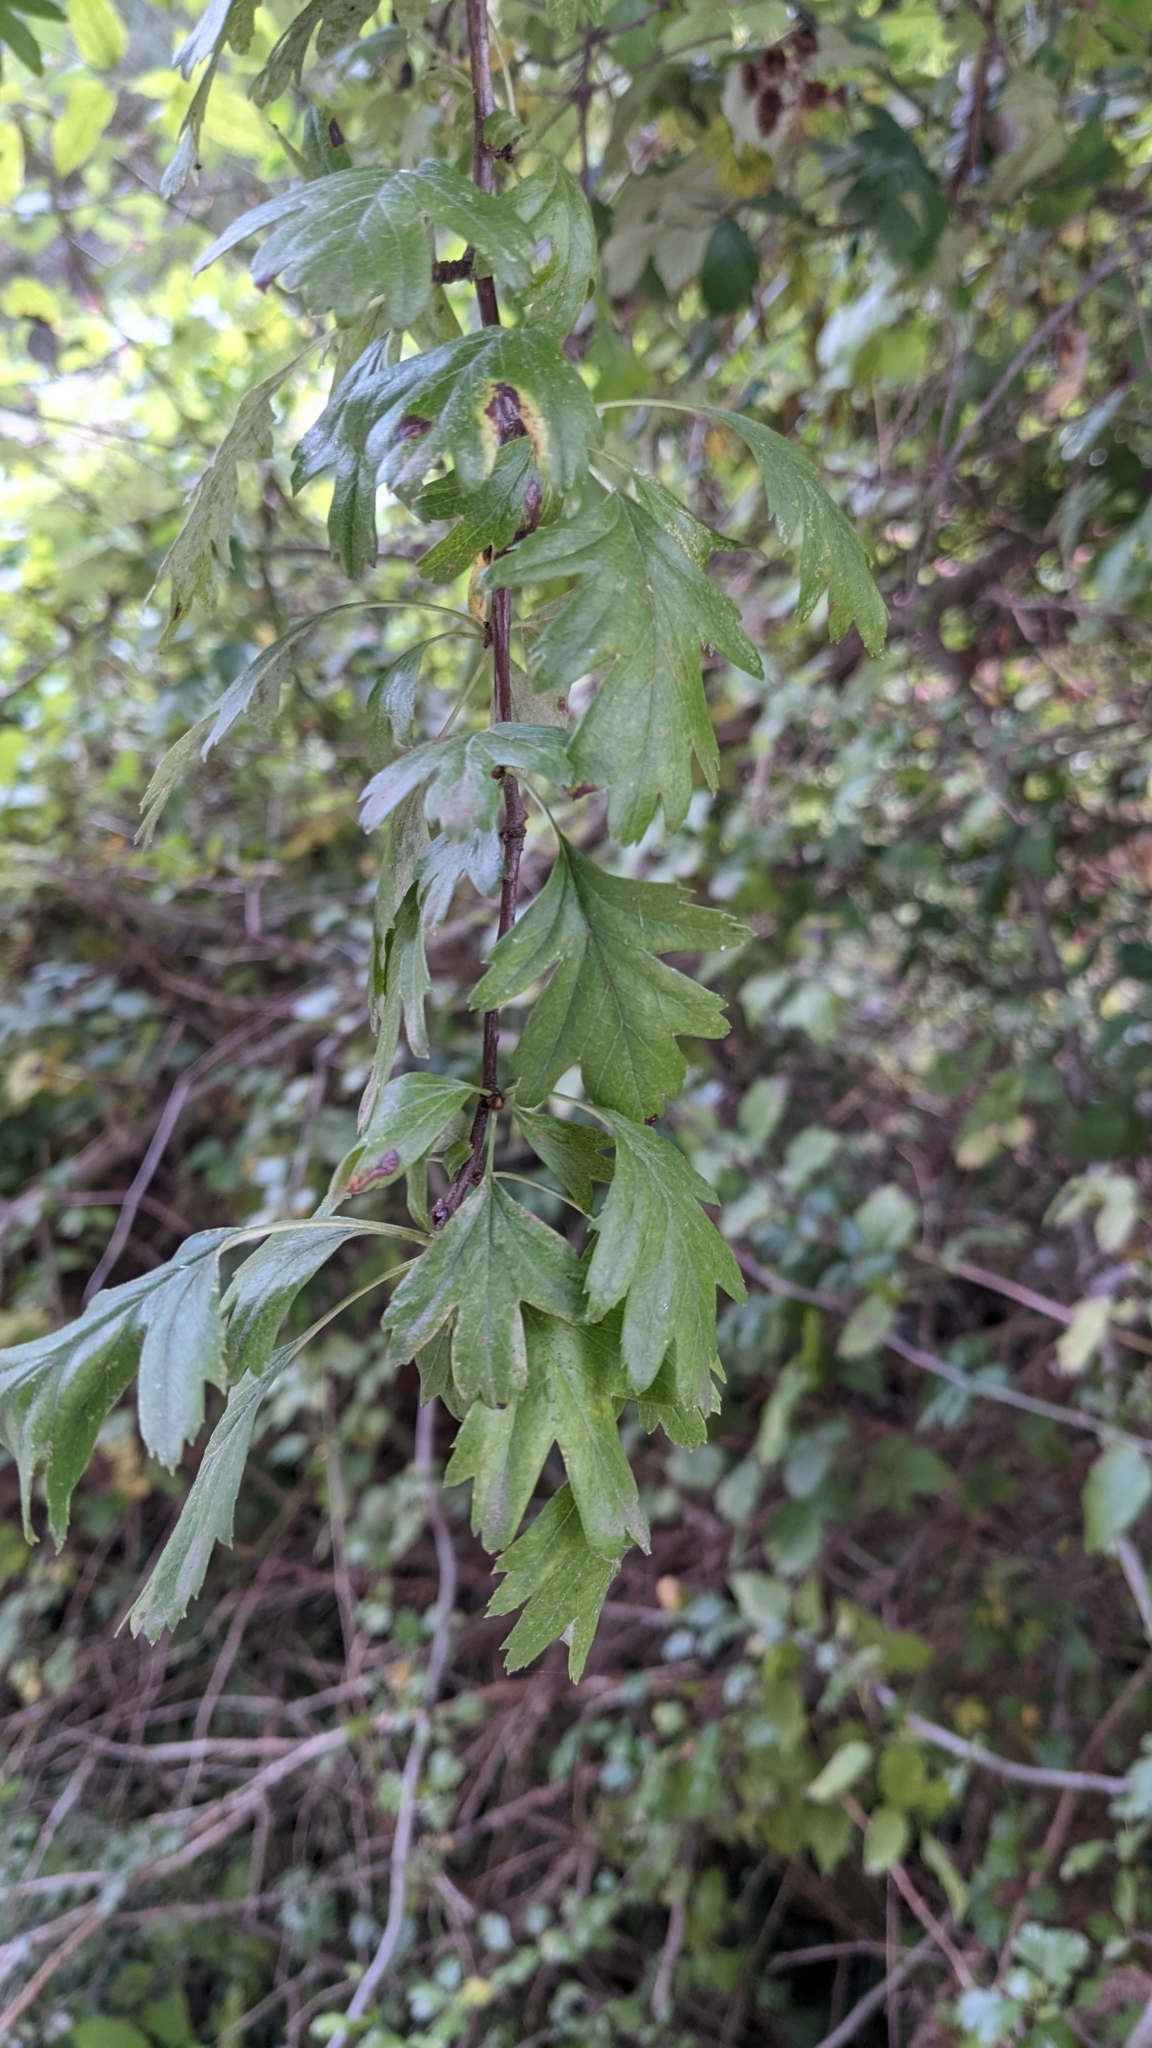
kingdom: Plantae
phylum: Tracheophyta
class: Magnoliopsida
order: Rosales
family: Rosaceae
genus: Crataegus
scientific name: Crataegus monogyna
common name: Hawthorn
